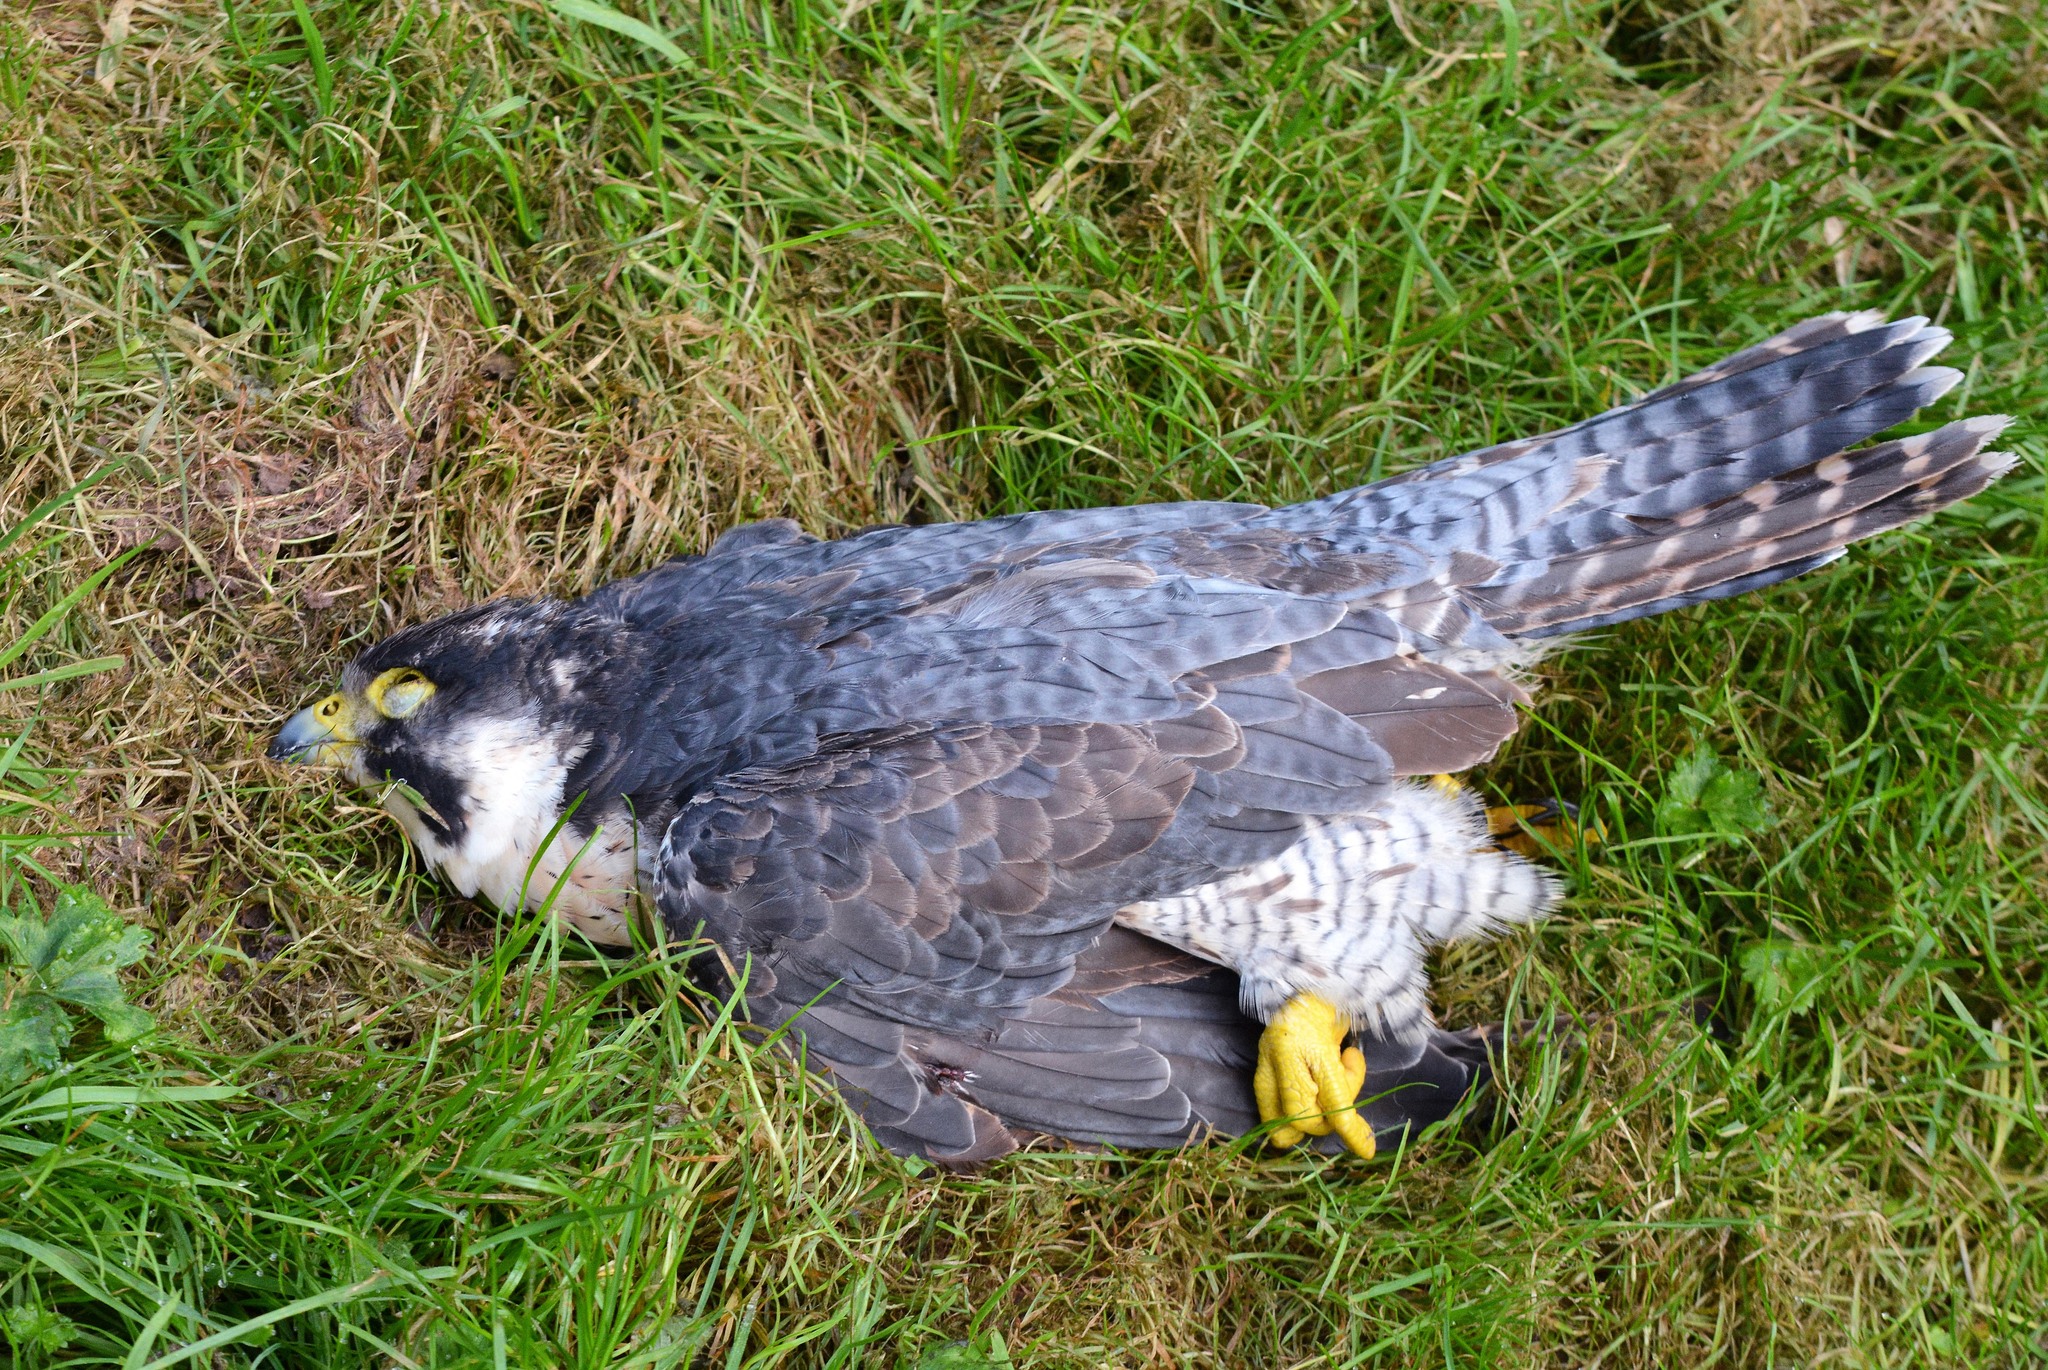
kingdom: Animalia
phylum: Chordata
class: Aves
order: Falconiformes
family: Falconidae
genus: Falco
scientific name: Falco peregrinus
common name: Peregrine falcon
